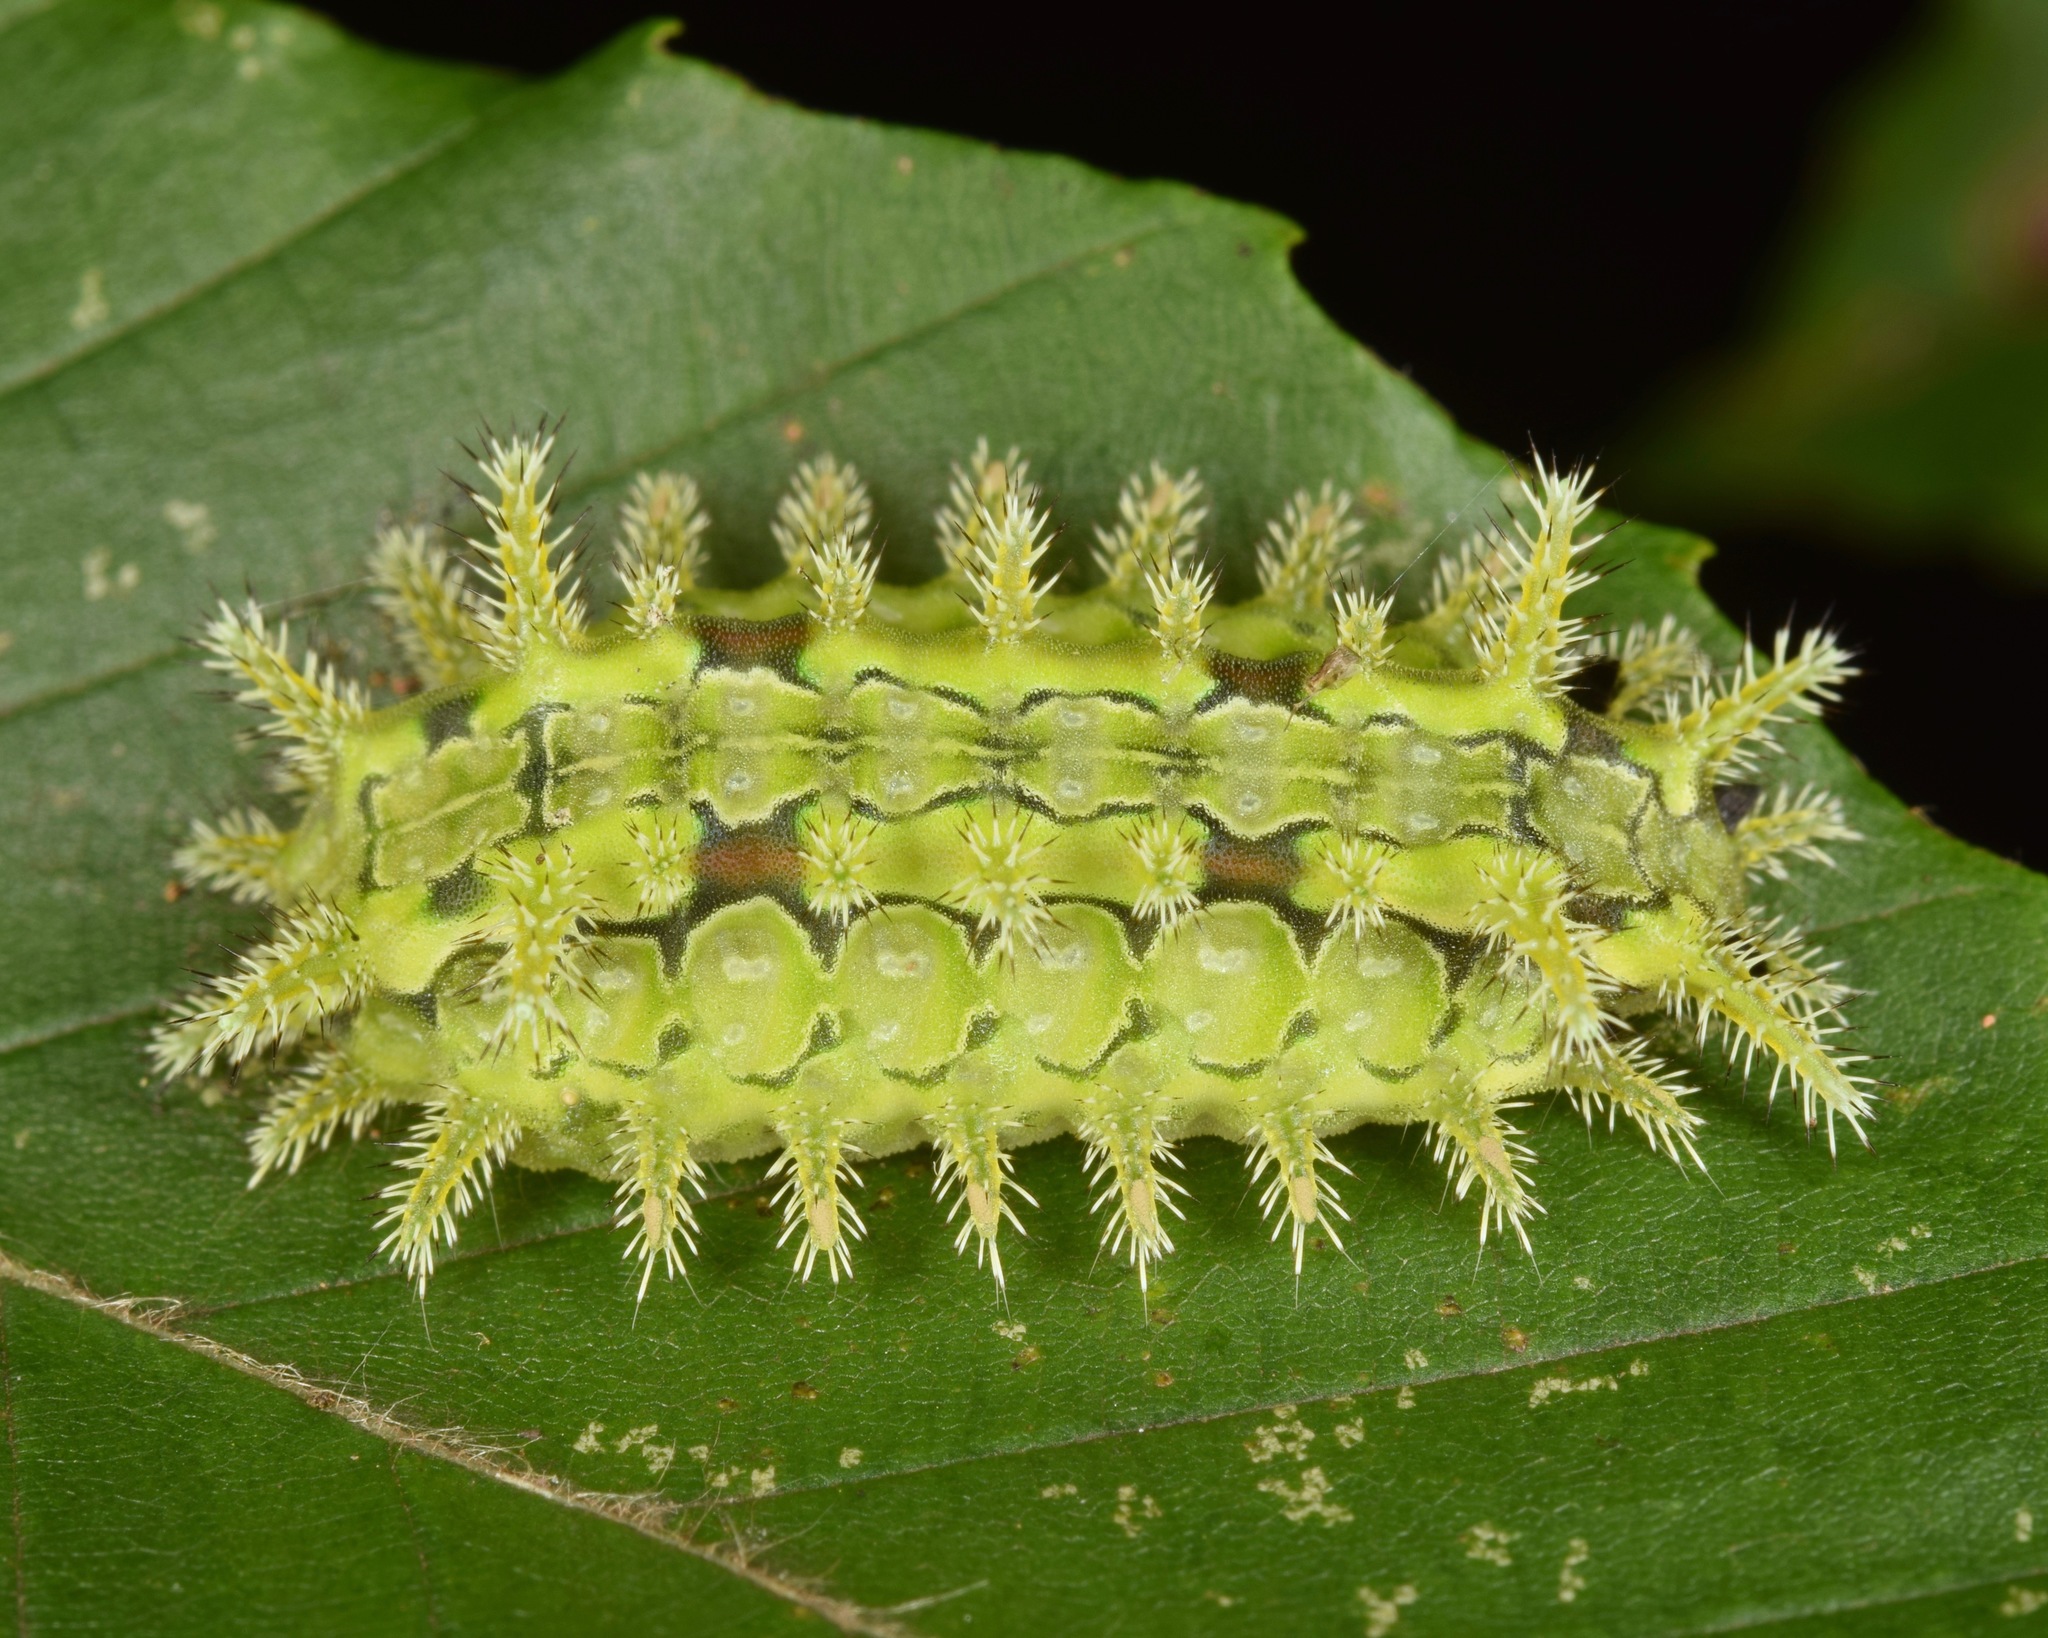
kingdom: Animalia
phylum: Arthropoda
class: Insecta
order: Lepidoptera
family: Limacodidae
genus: Euclea
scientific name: Euclea delphinii
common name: Spiny oak-slug moth
